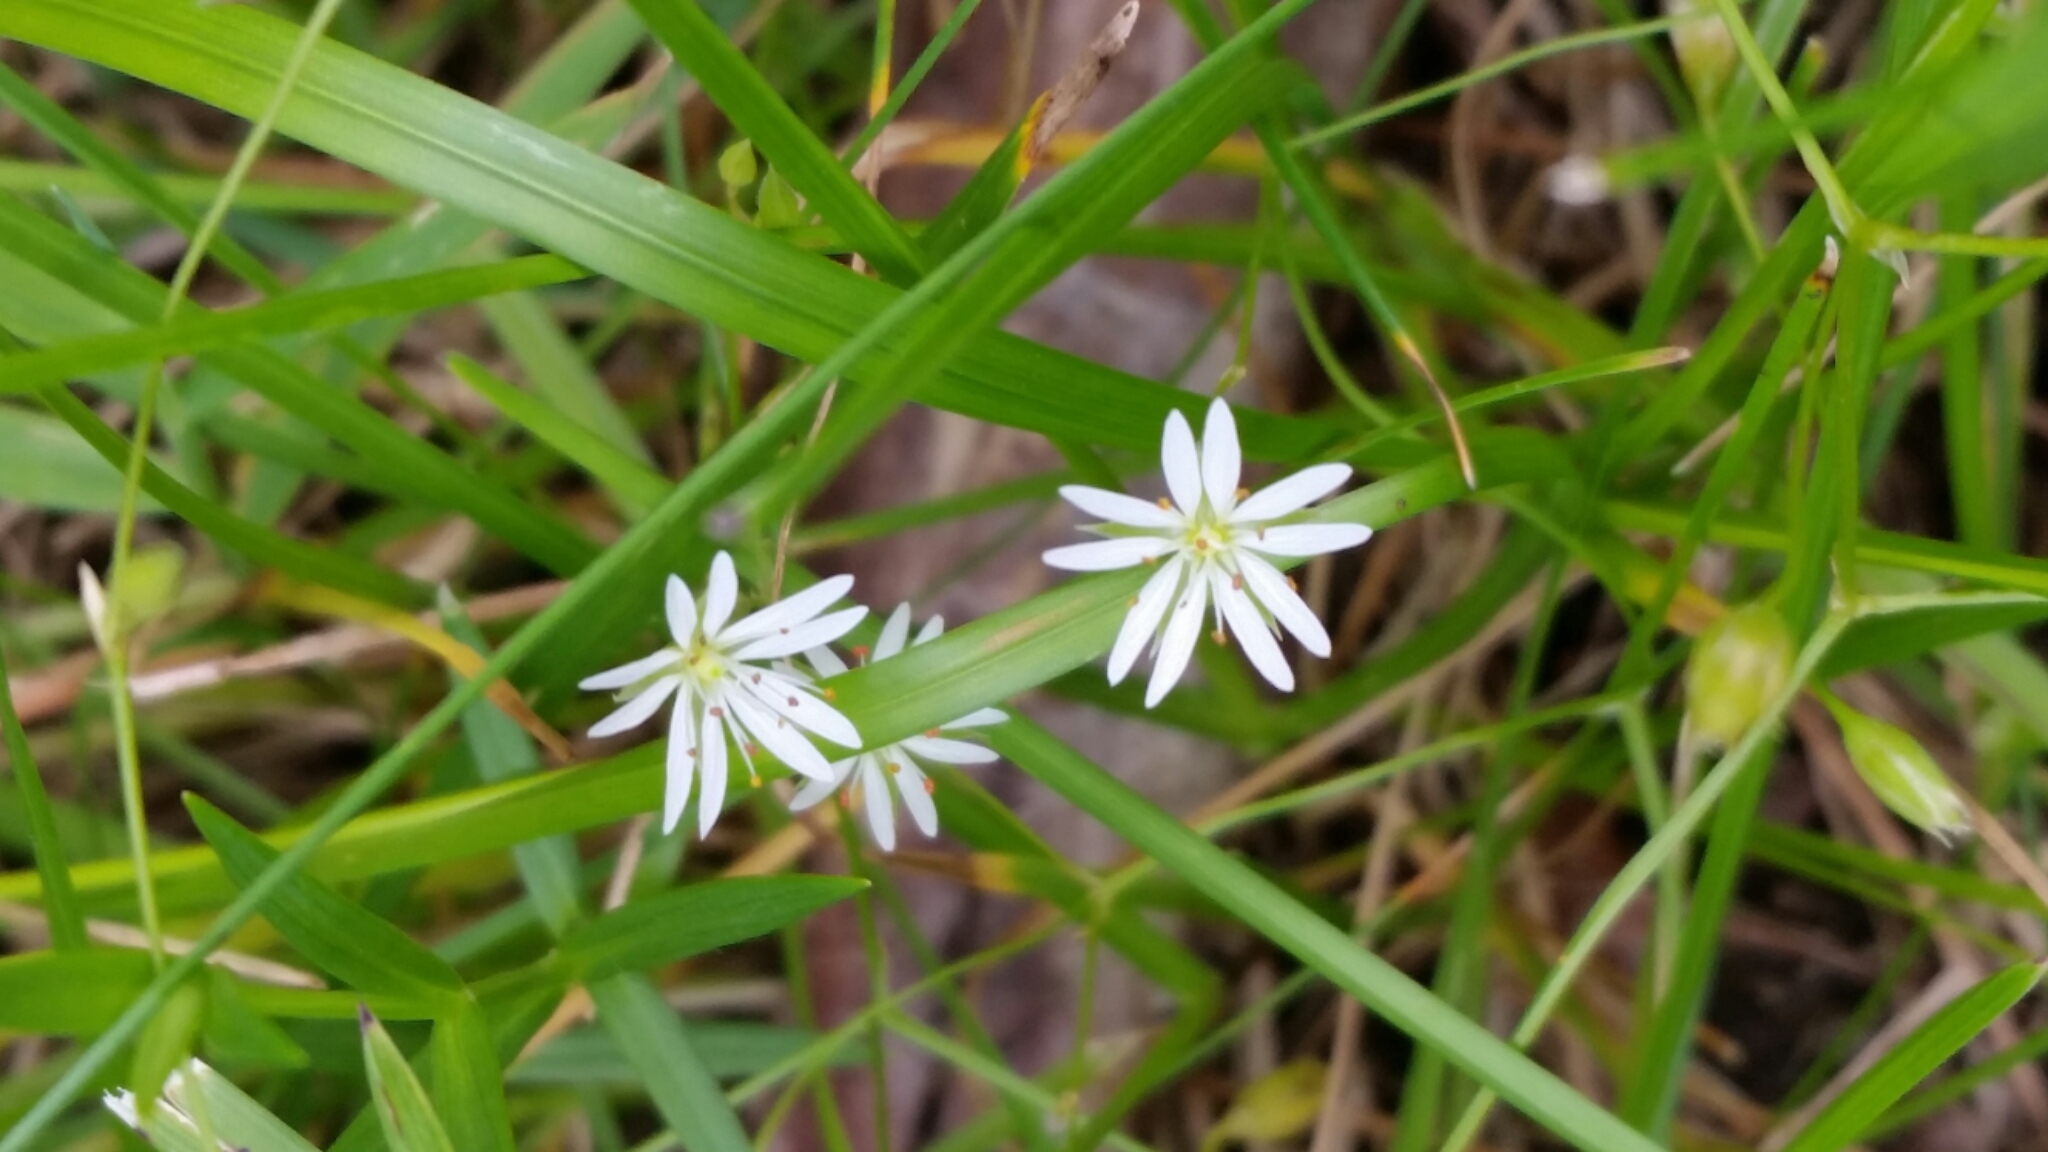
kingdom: Plantae
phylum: Tracheophyta
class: Magnoliopsida
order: Caryophyllales
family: Caryophyllaceae
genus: Stellaria
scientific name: Stellaria graminea
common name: Grass-like starwort
